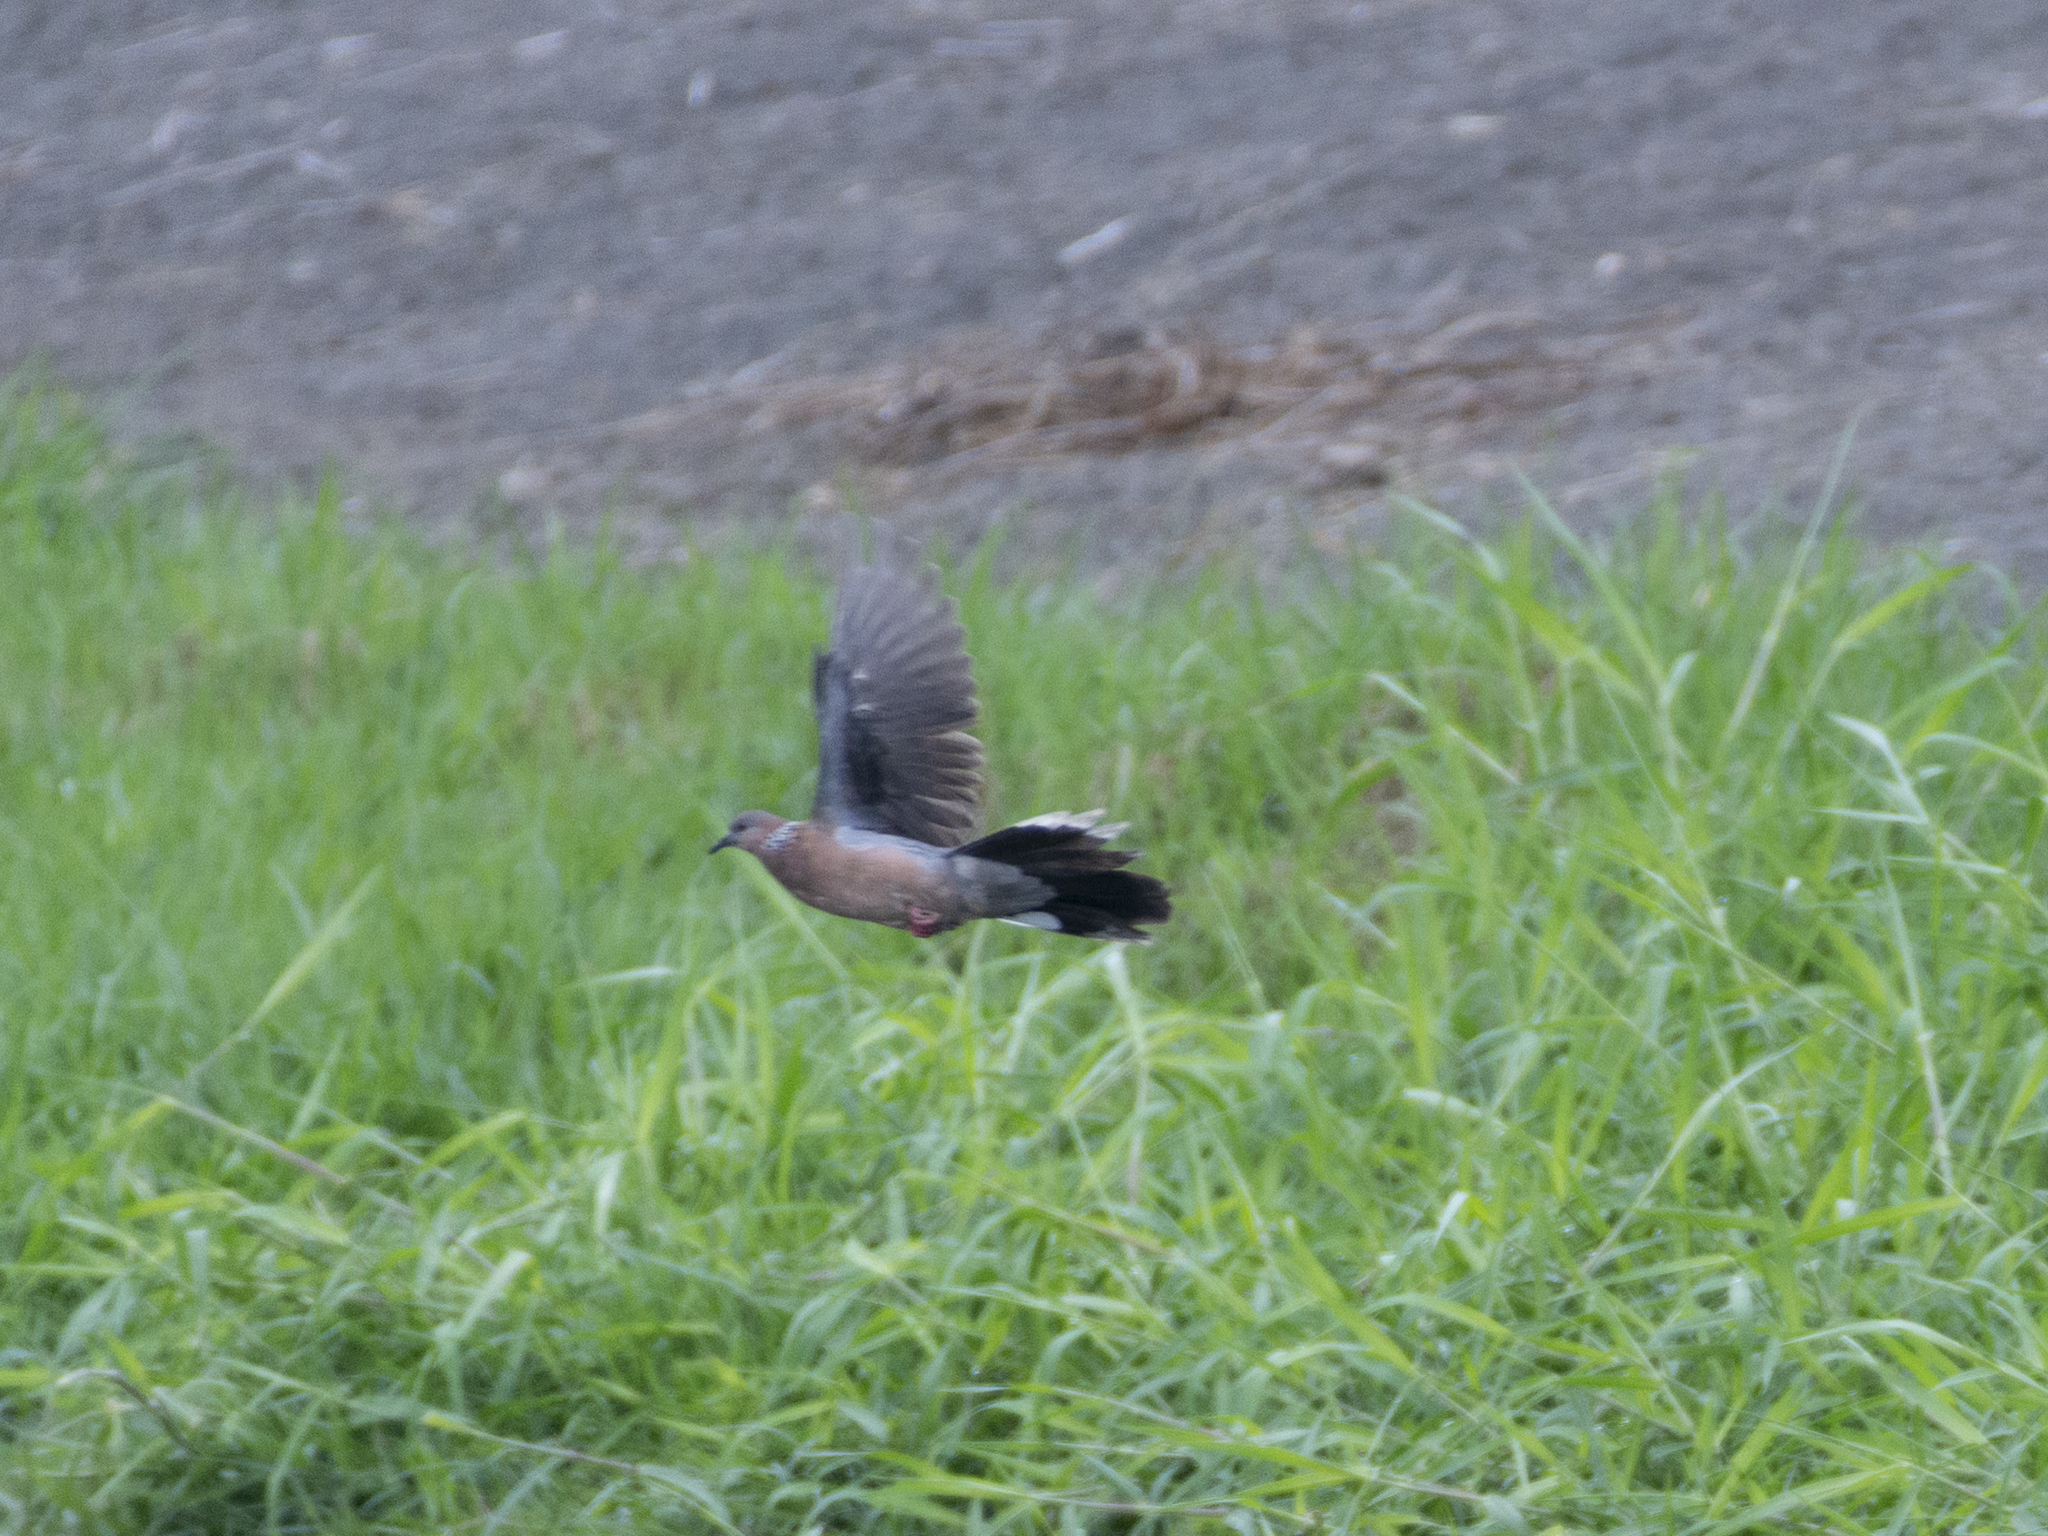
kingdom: Animalia
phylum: Chordata
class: Aves
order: Columbiformes
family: Columbidae
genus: Spilopelia
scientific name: Spilopelia chinensis
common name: Spotted dove
